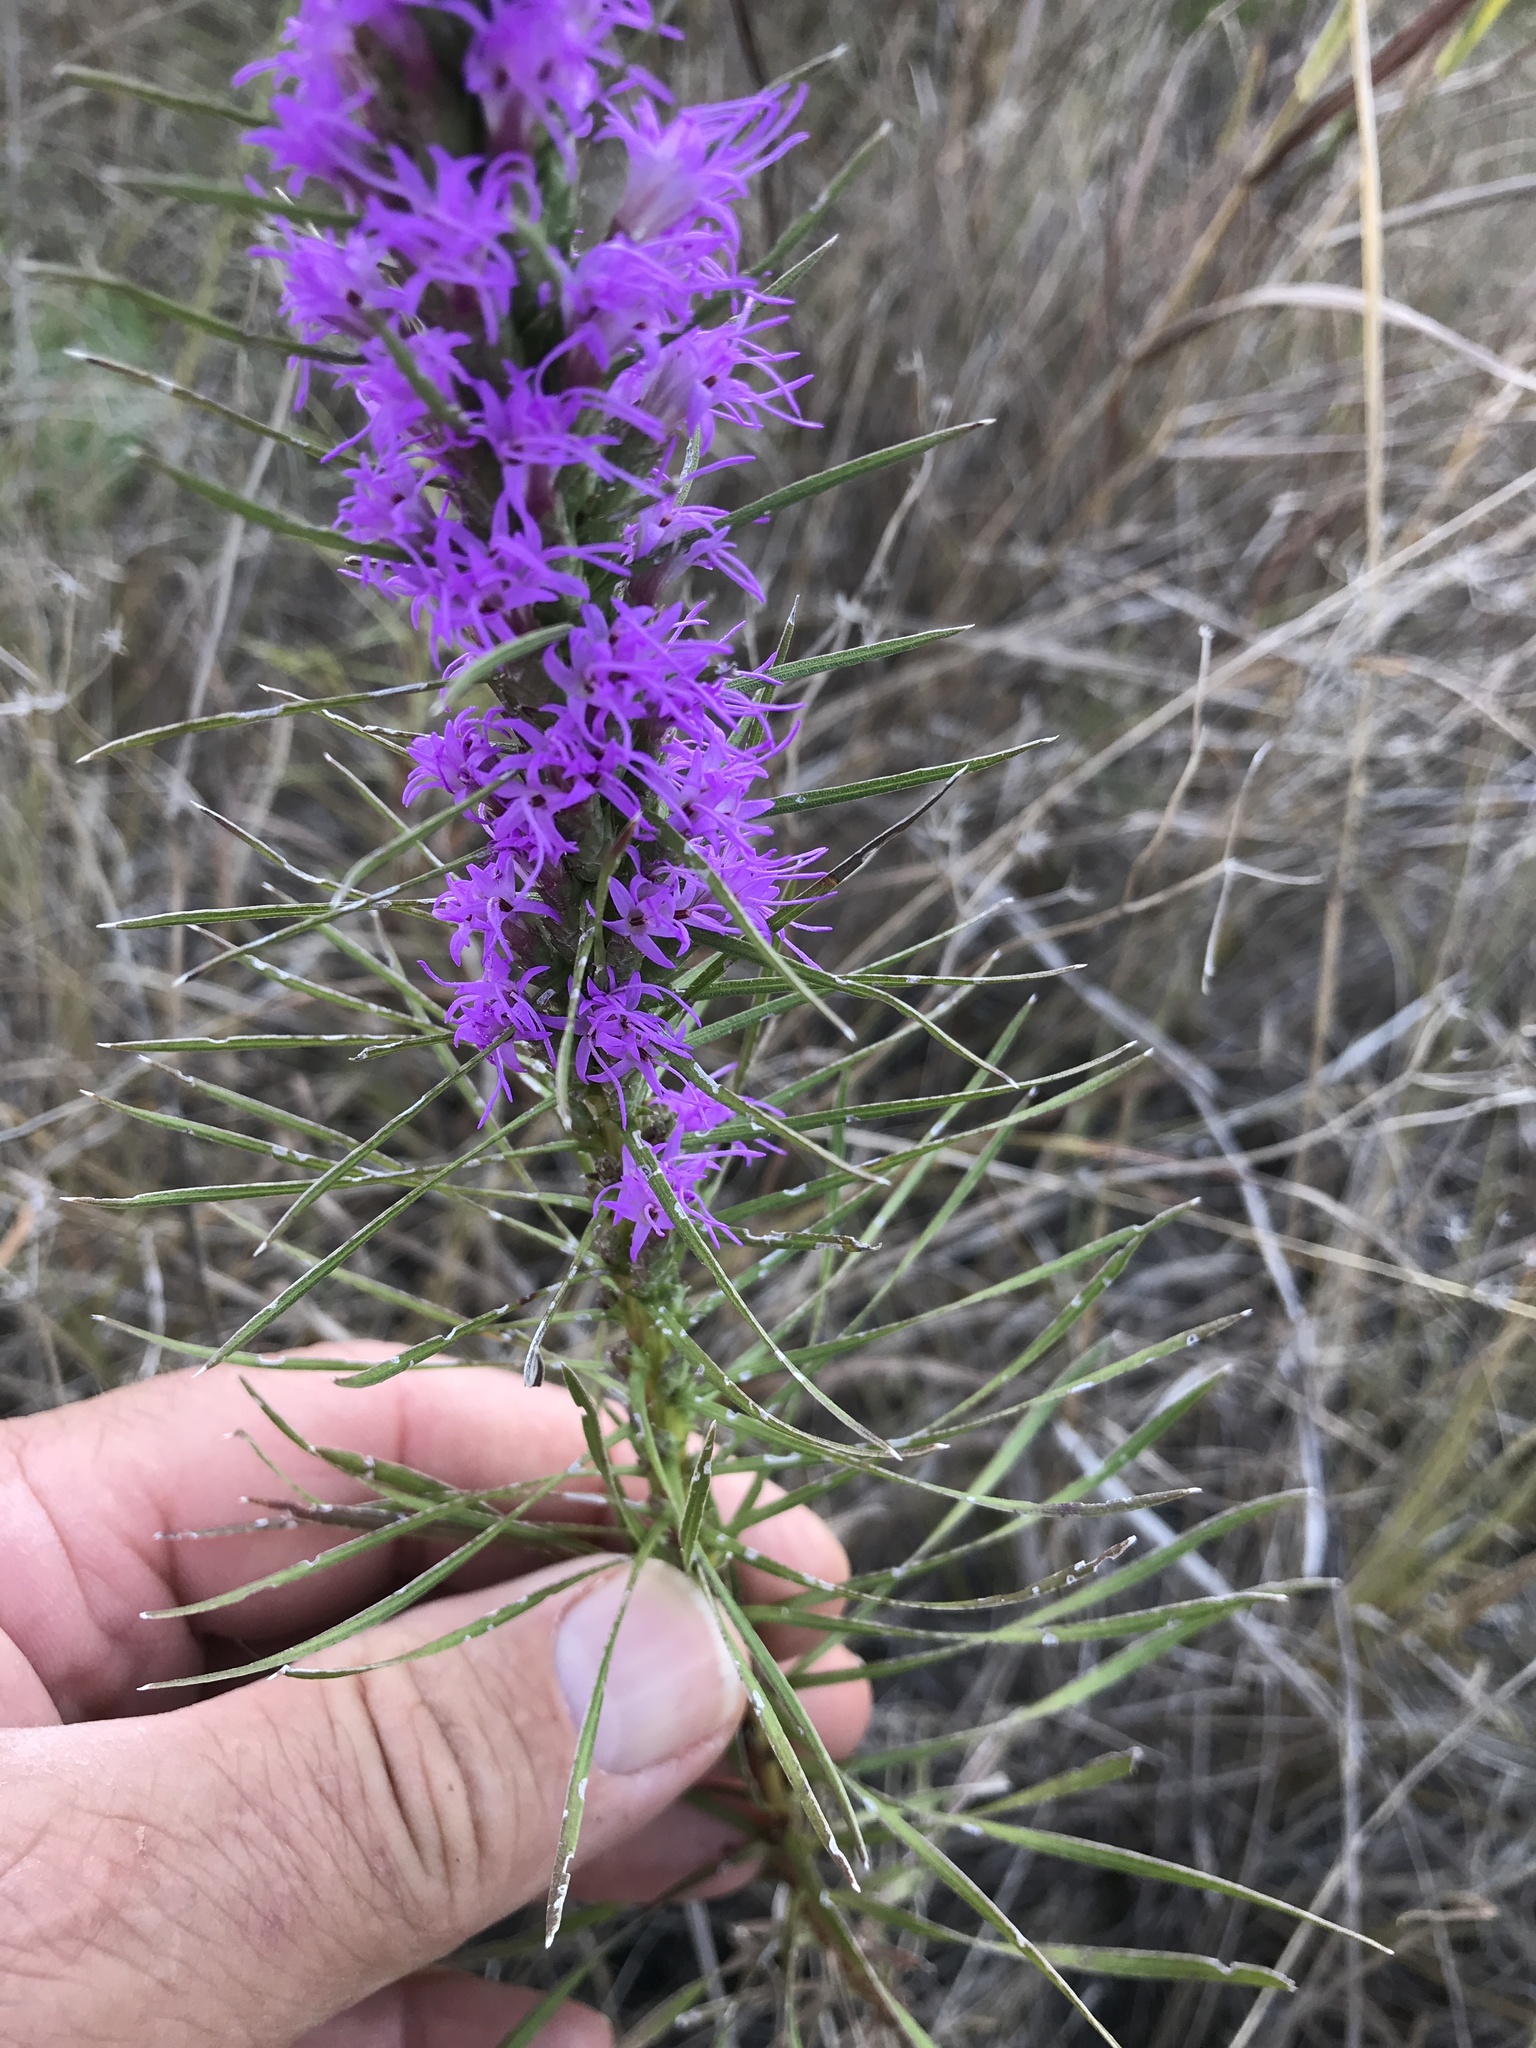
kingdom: Plantae
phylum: Tracheophyta
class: Magnoliopsida
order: Asterales
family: Asteraceae
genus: Liatris
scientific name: Liatris punctata
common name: Dotted gayfeather
